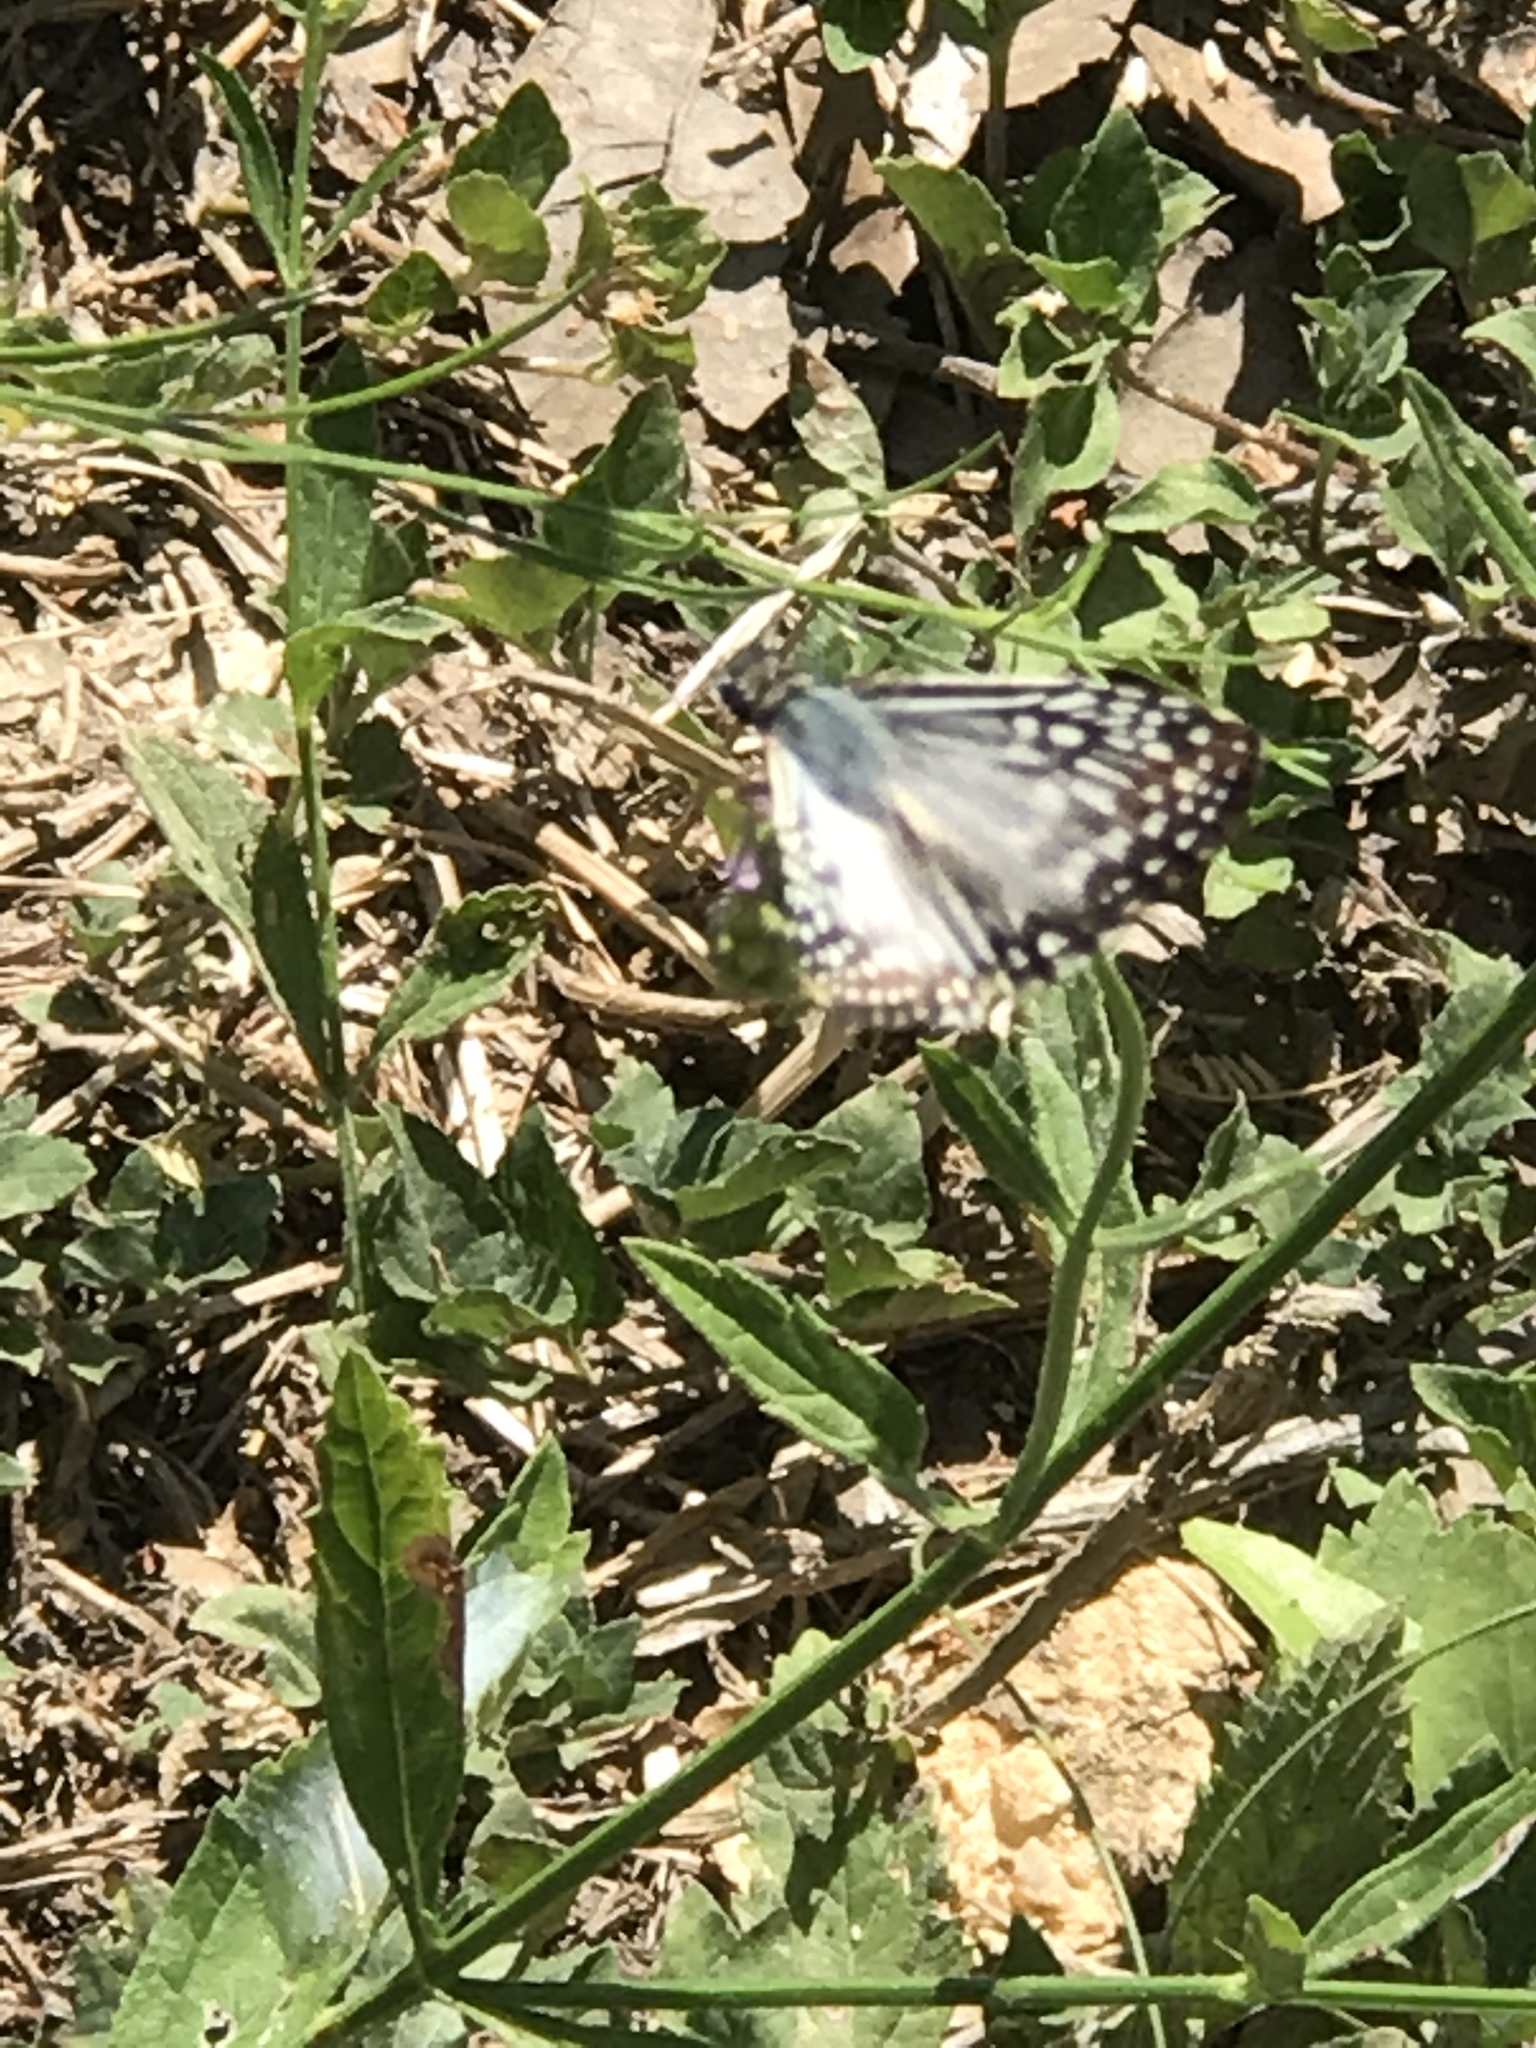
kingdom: Animalia
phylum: Arthropoda
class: Insecta
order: Lepidoptera
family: Hesperiidae
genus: Pyrgus
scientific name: Pyrgus oileus
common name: Tropical checkered-skipper
